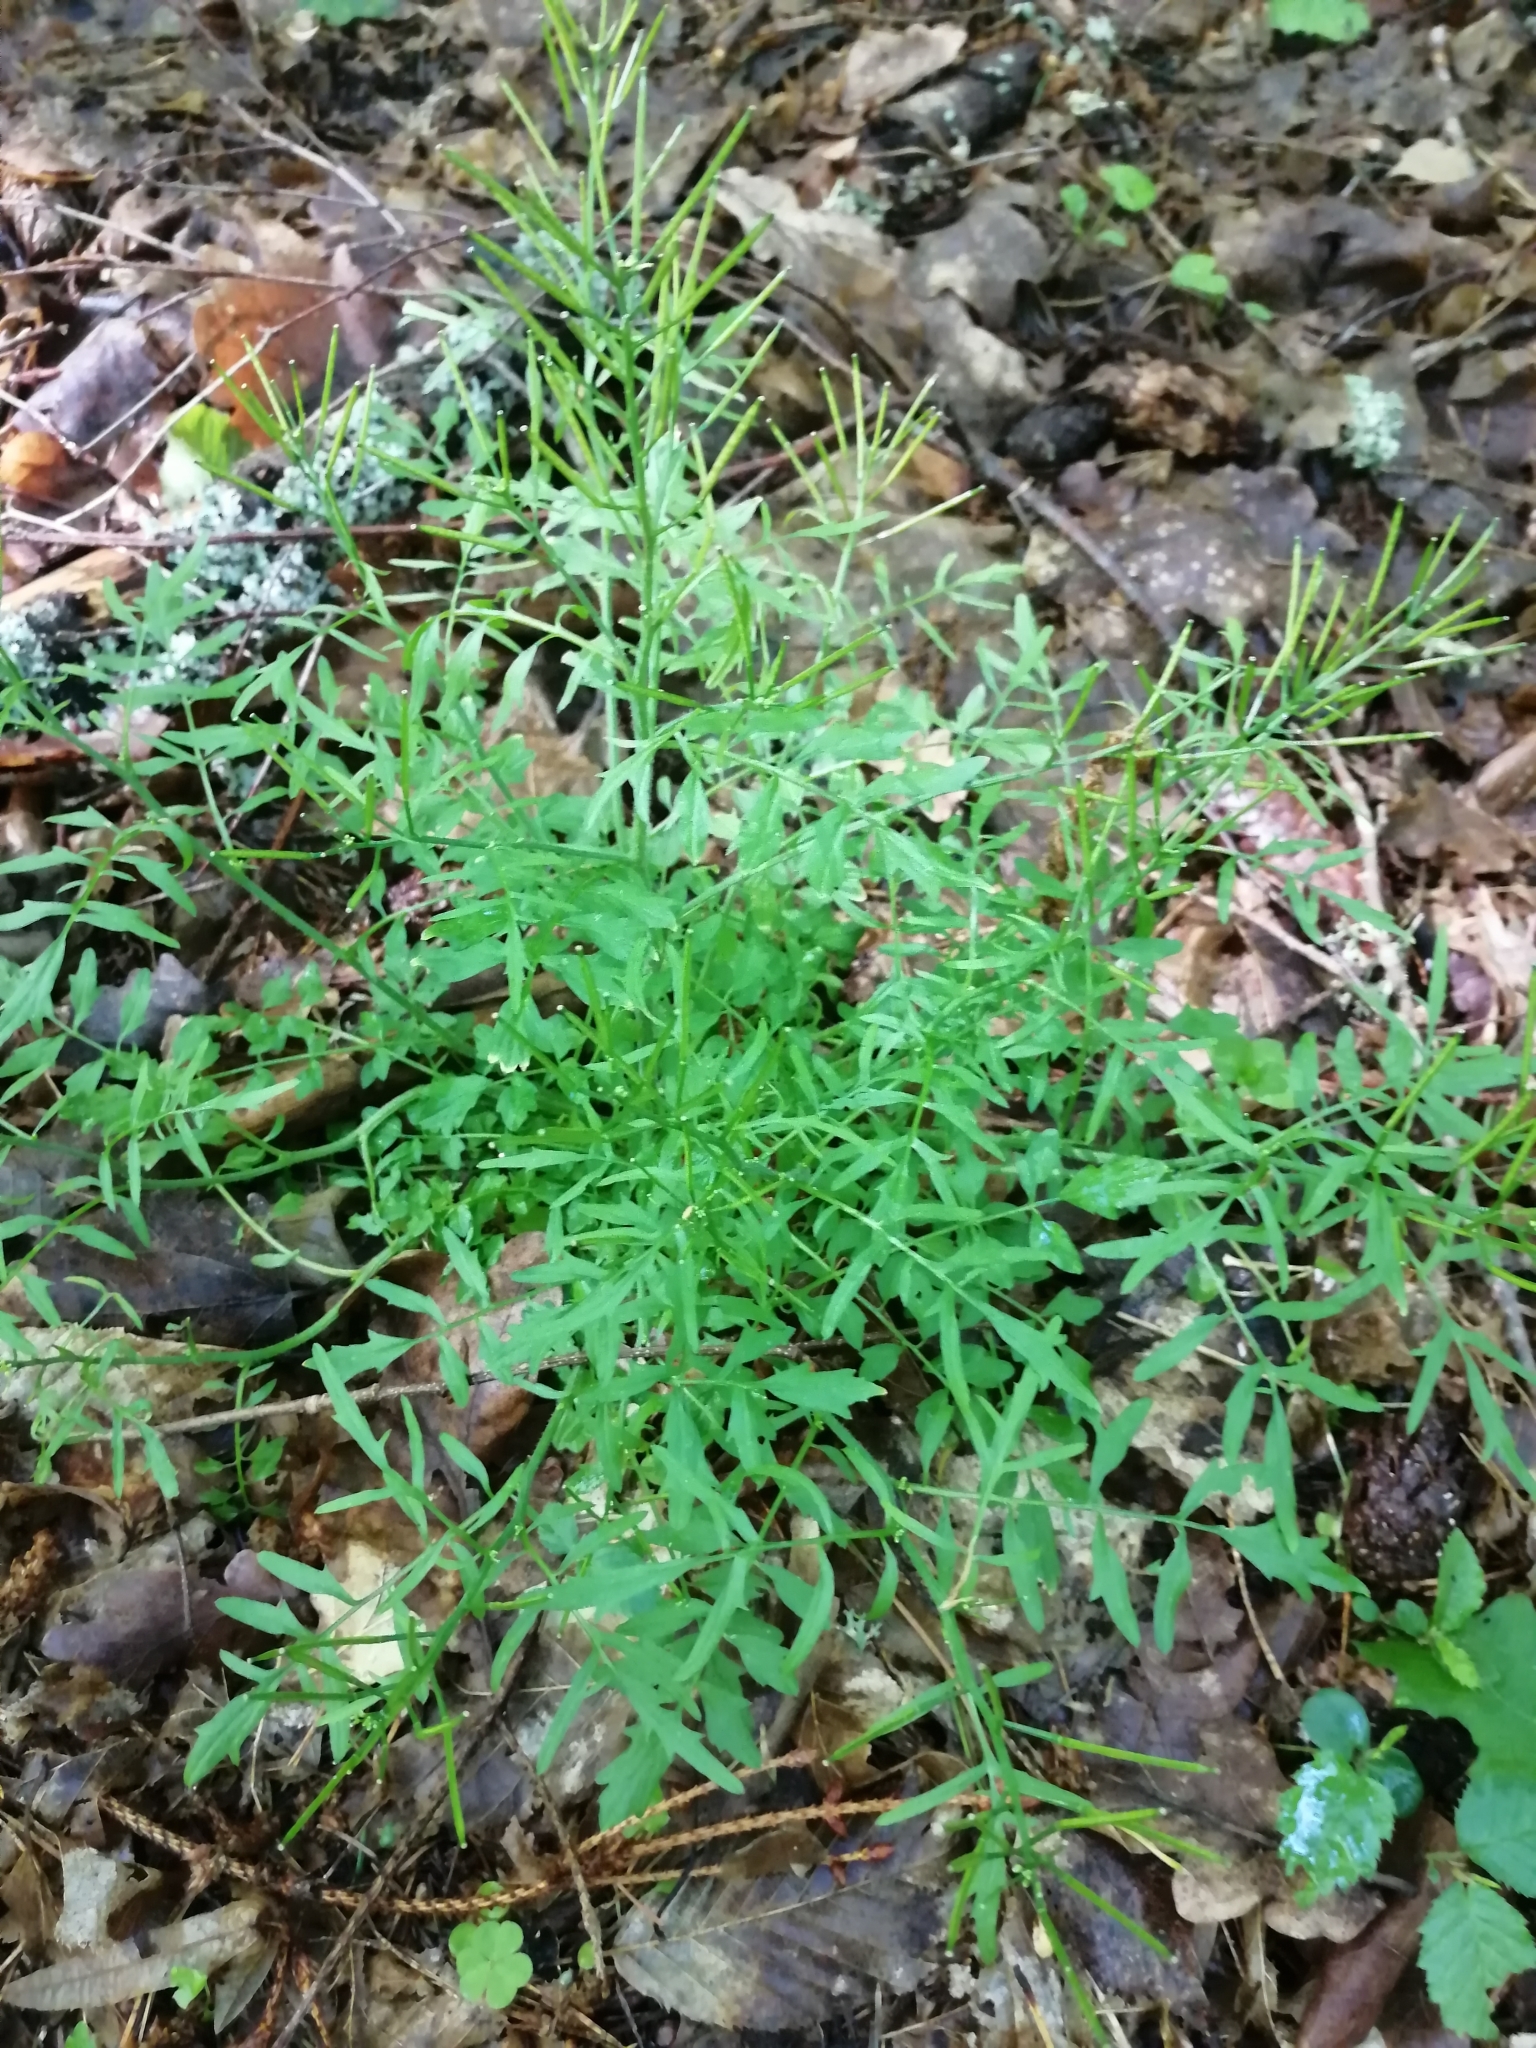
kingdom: Plantae
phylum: Tracheophyta
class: Magnoliopsida
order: Brassicales
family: Brassicaceae
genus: Cardamine
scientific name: Cardamine impatiens
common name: Narrow-leaved bitter-cress
